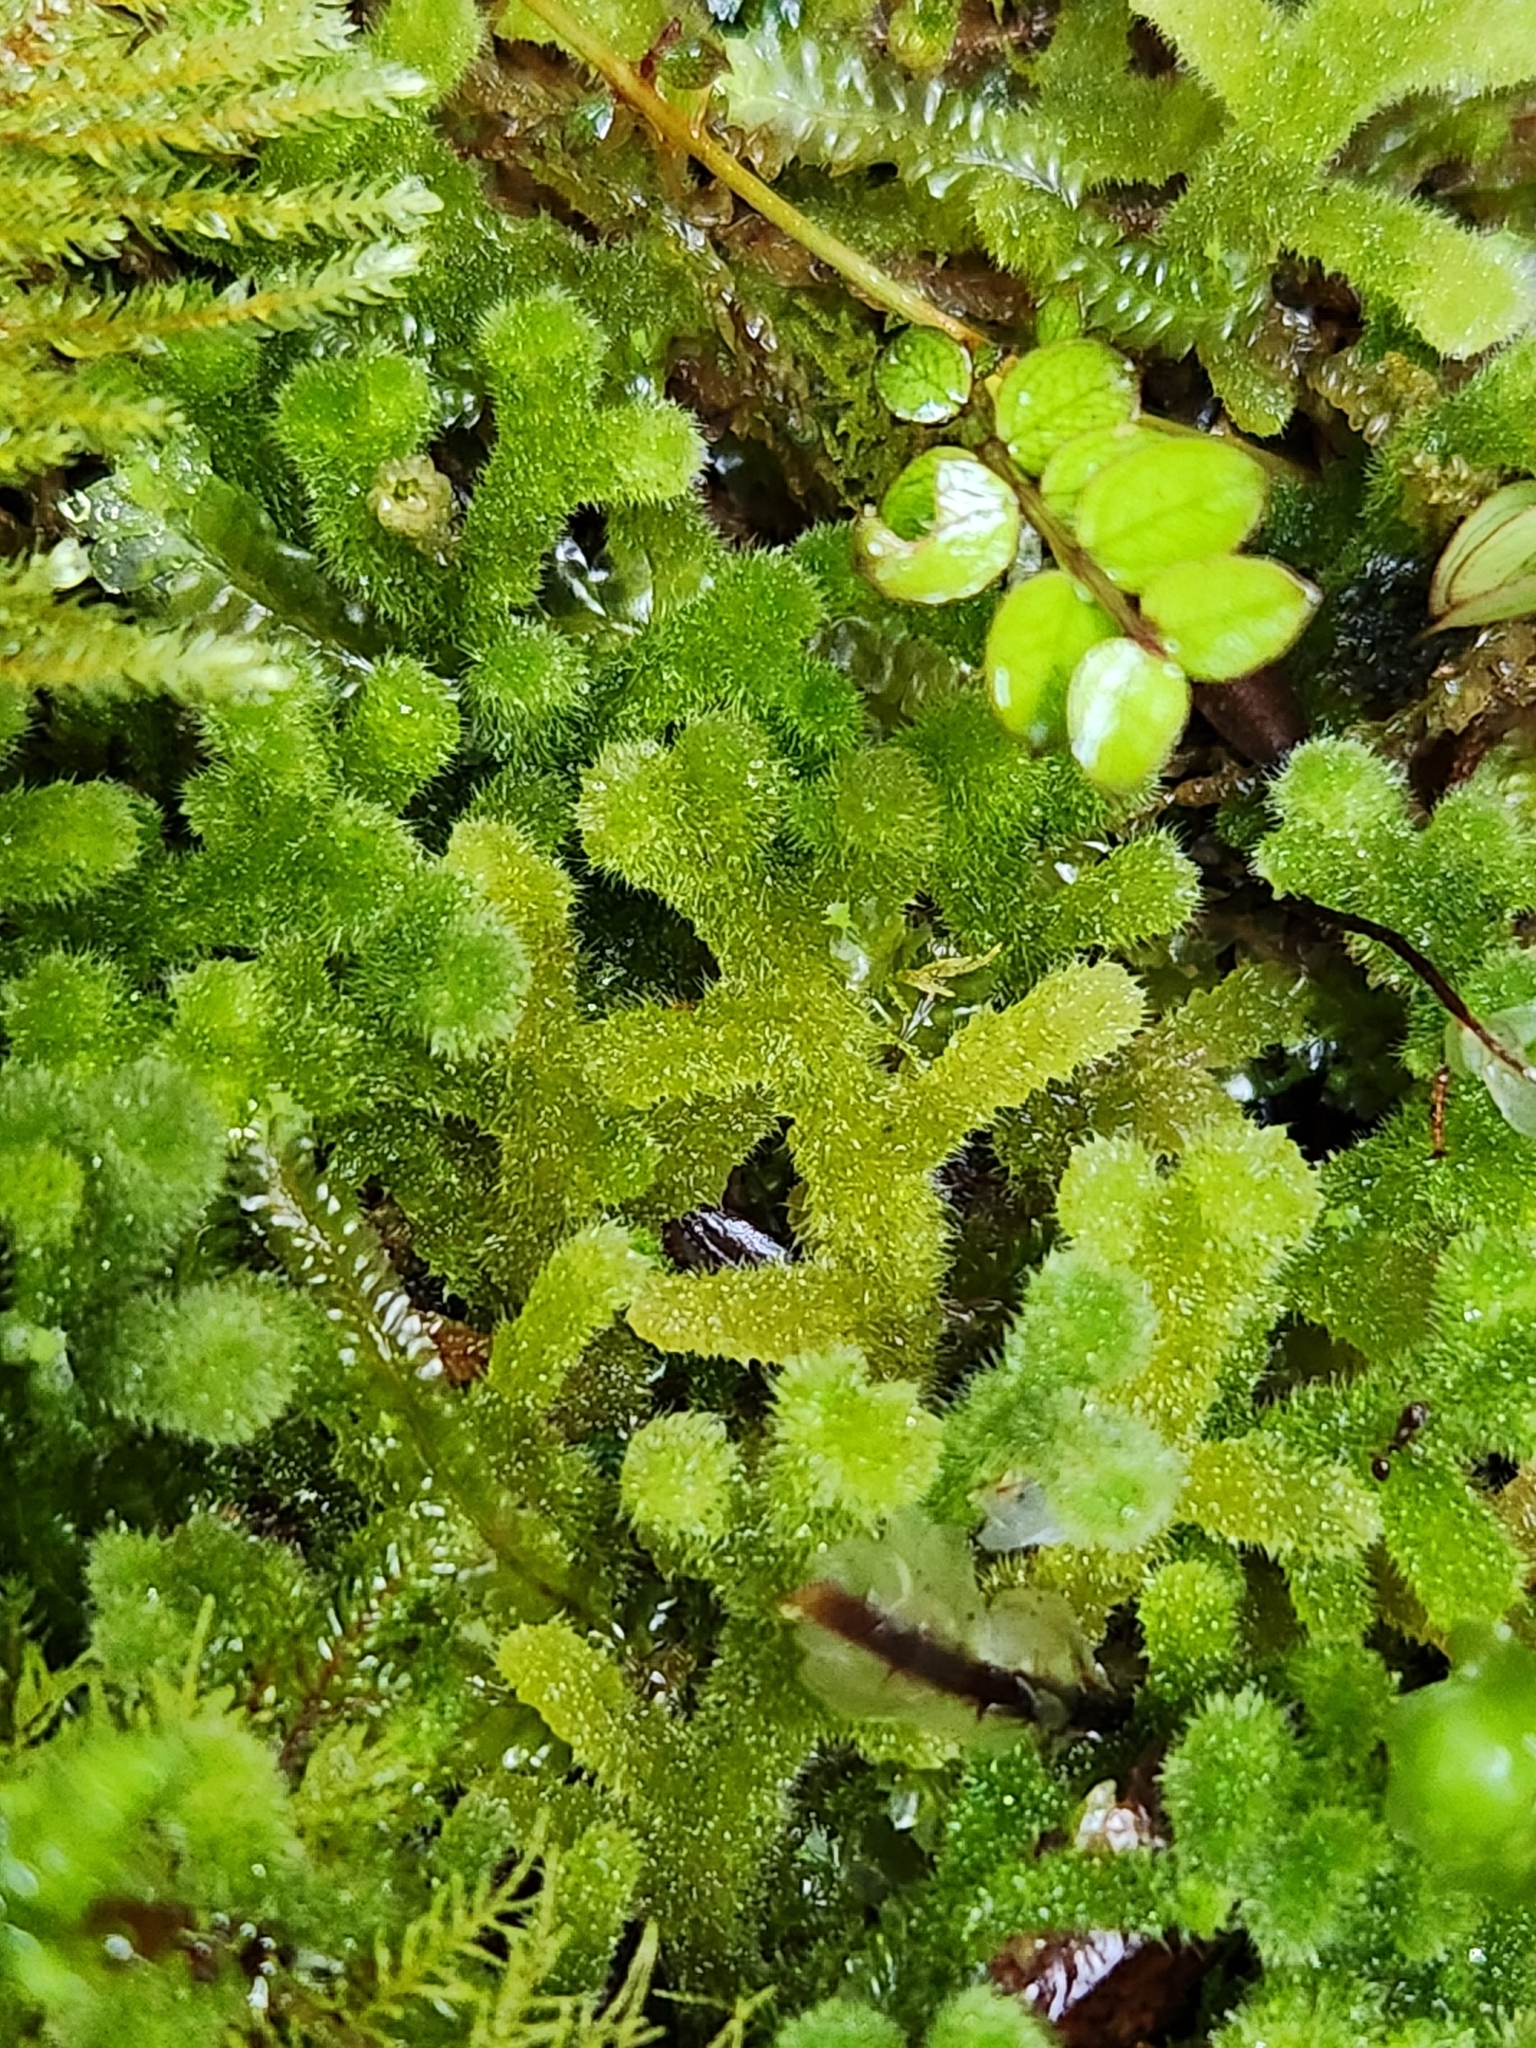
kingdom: Plantae
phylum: Marchantiophyta
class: Jungermanniopsida
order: Jungermanniales
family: Trichocoleaceae
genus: Leiomitra
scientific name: Leiomitra lanata
